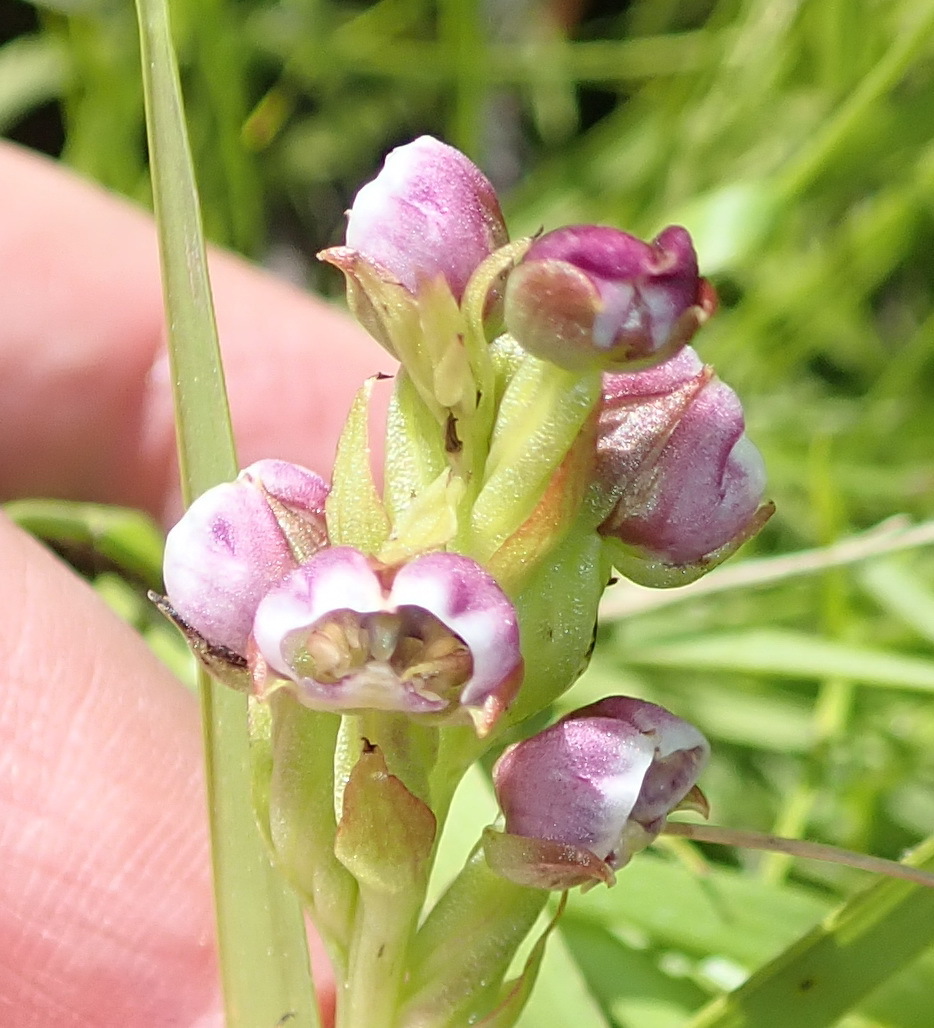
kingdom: Plantae
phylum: Tracheophyta
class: Liliopsida
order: Asparagales
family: Orchidaceae
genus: Evotella
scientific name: Evotella carnosa
